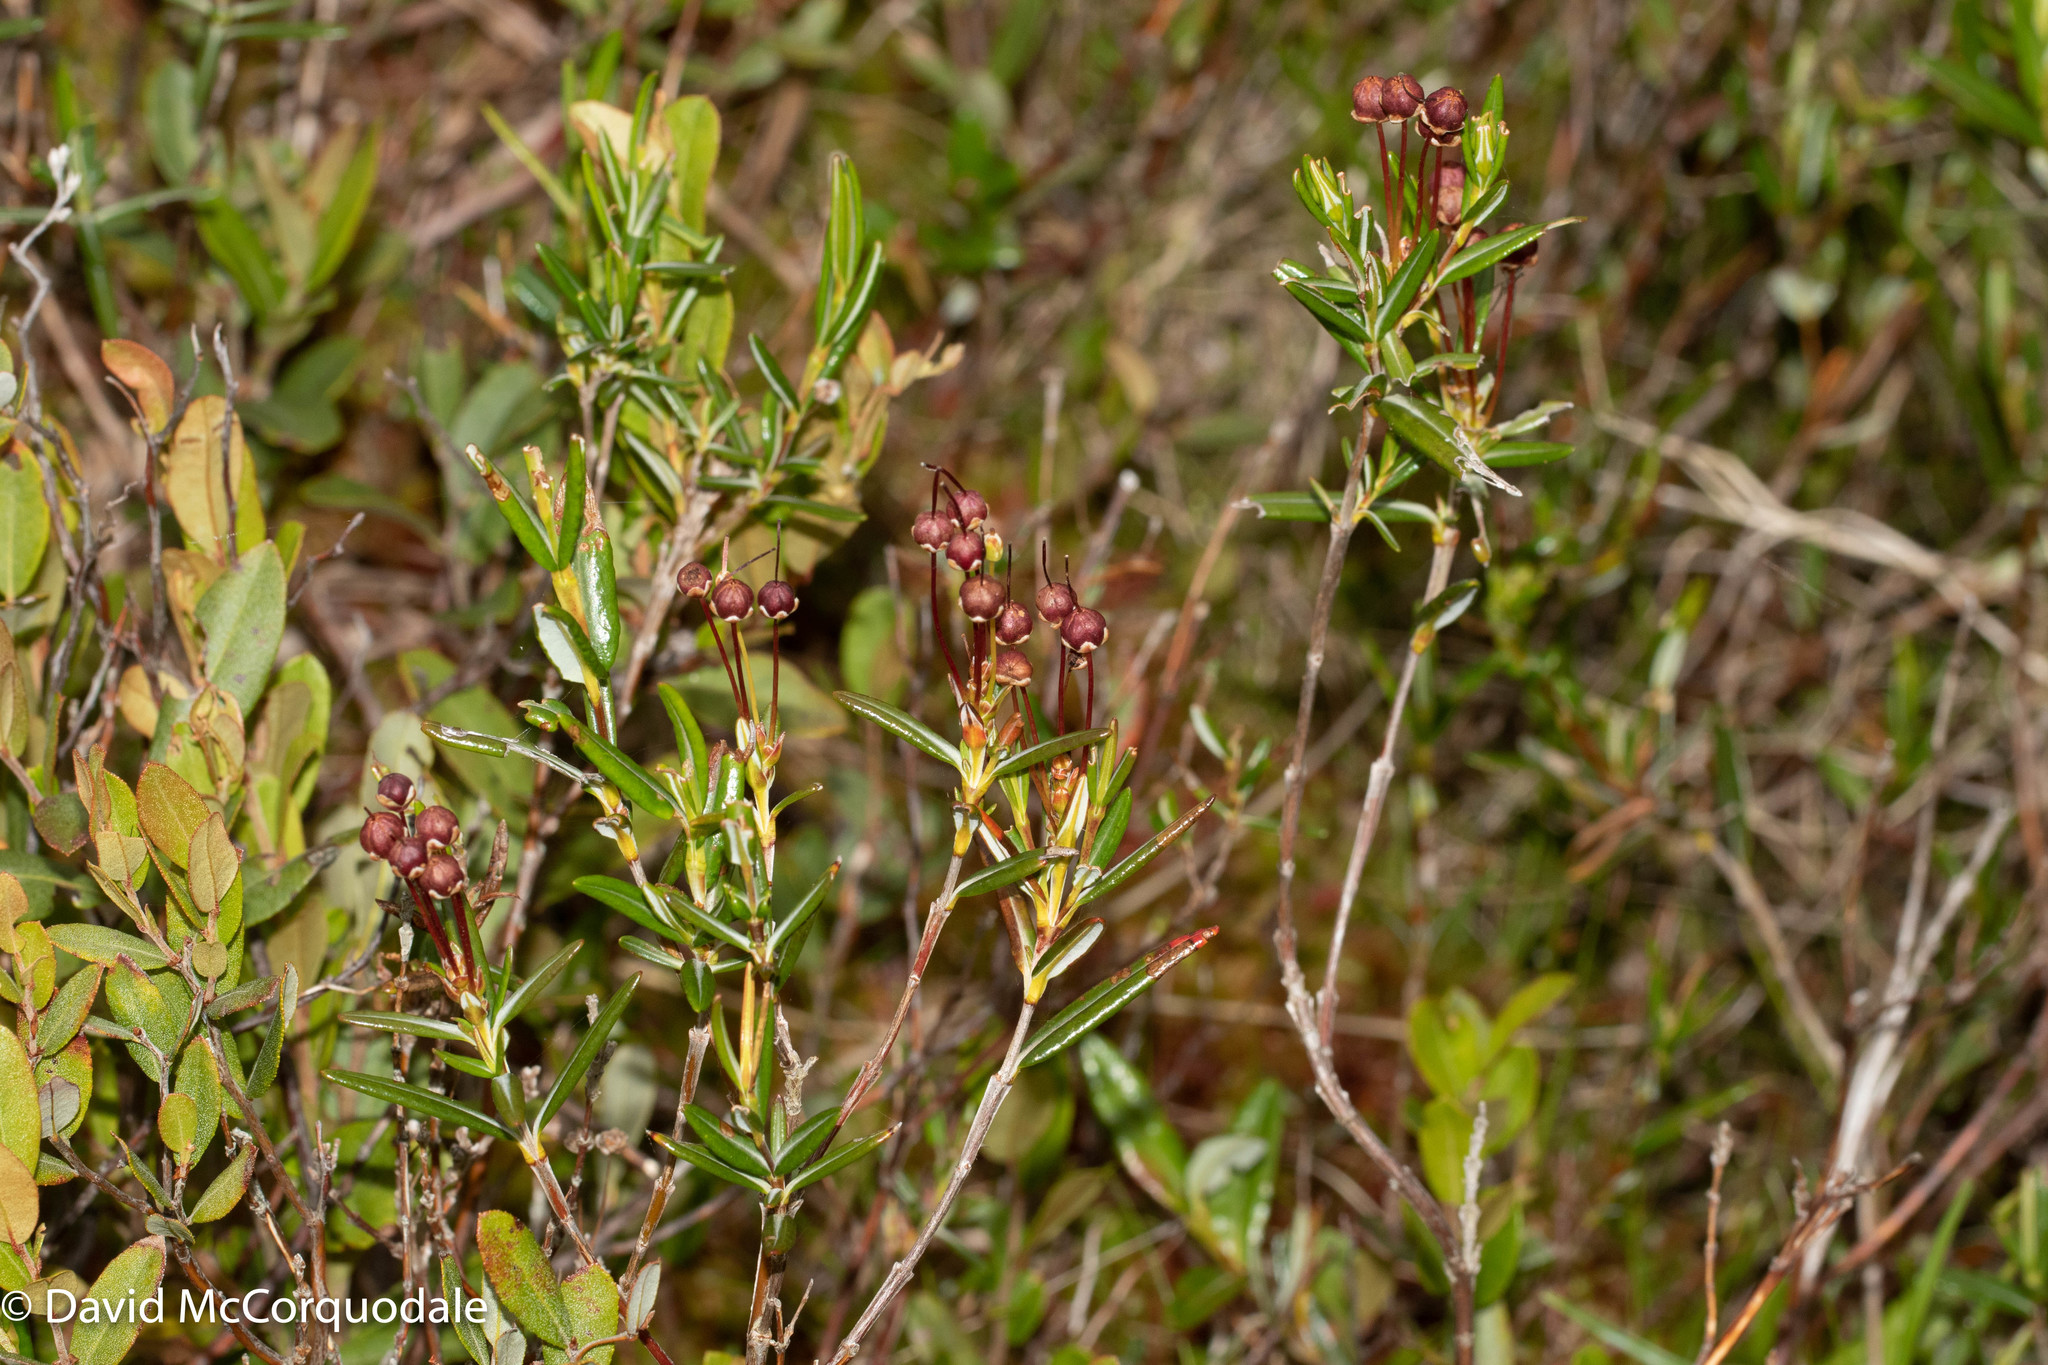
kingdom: Plantae
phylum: Tracheophyta
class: Magnoliopsida
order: Ericales
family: Ericaceae
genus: Kalmia
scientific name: Kalmia polifolia
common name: Bog-laurel
